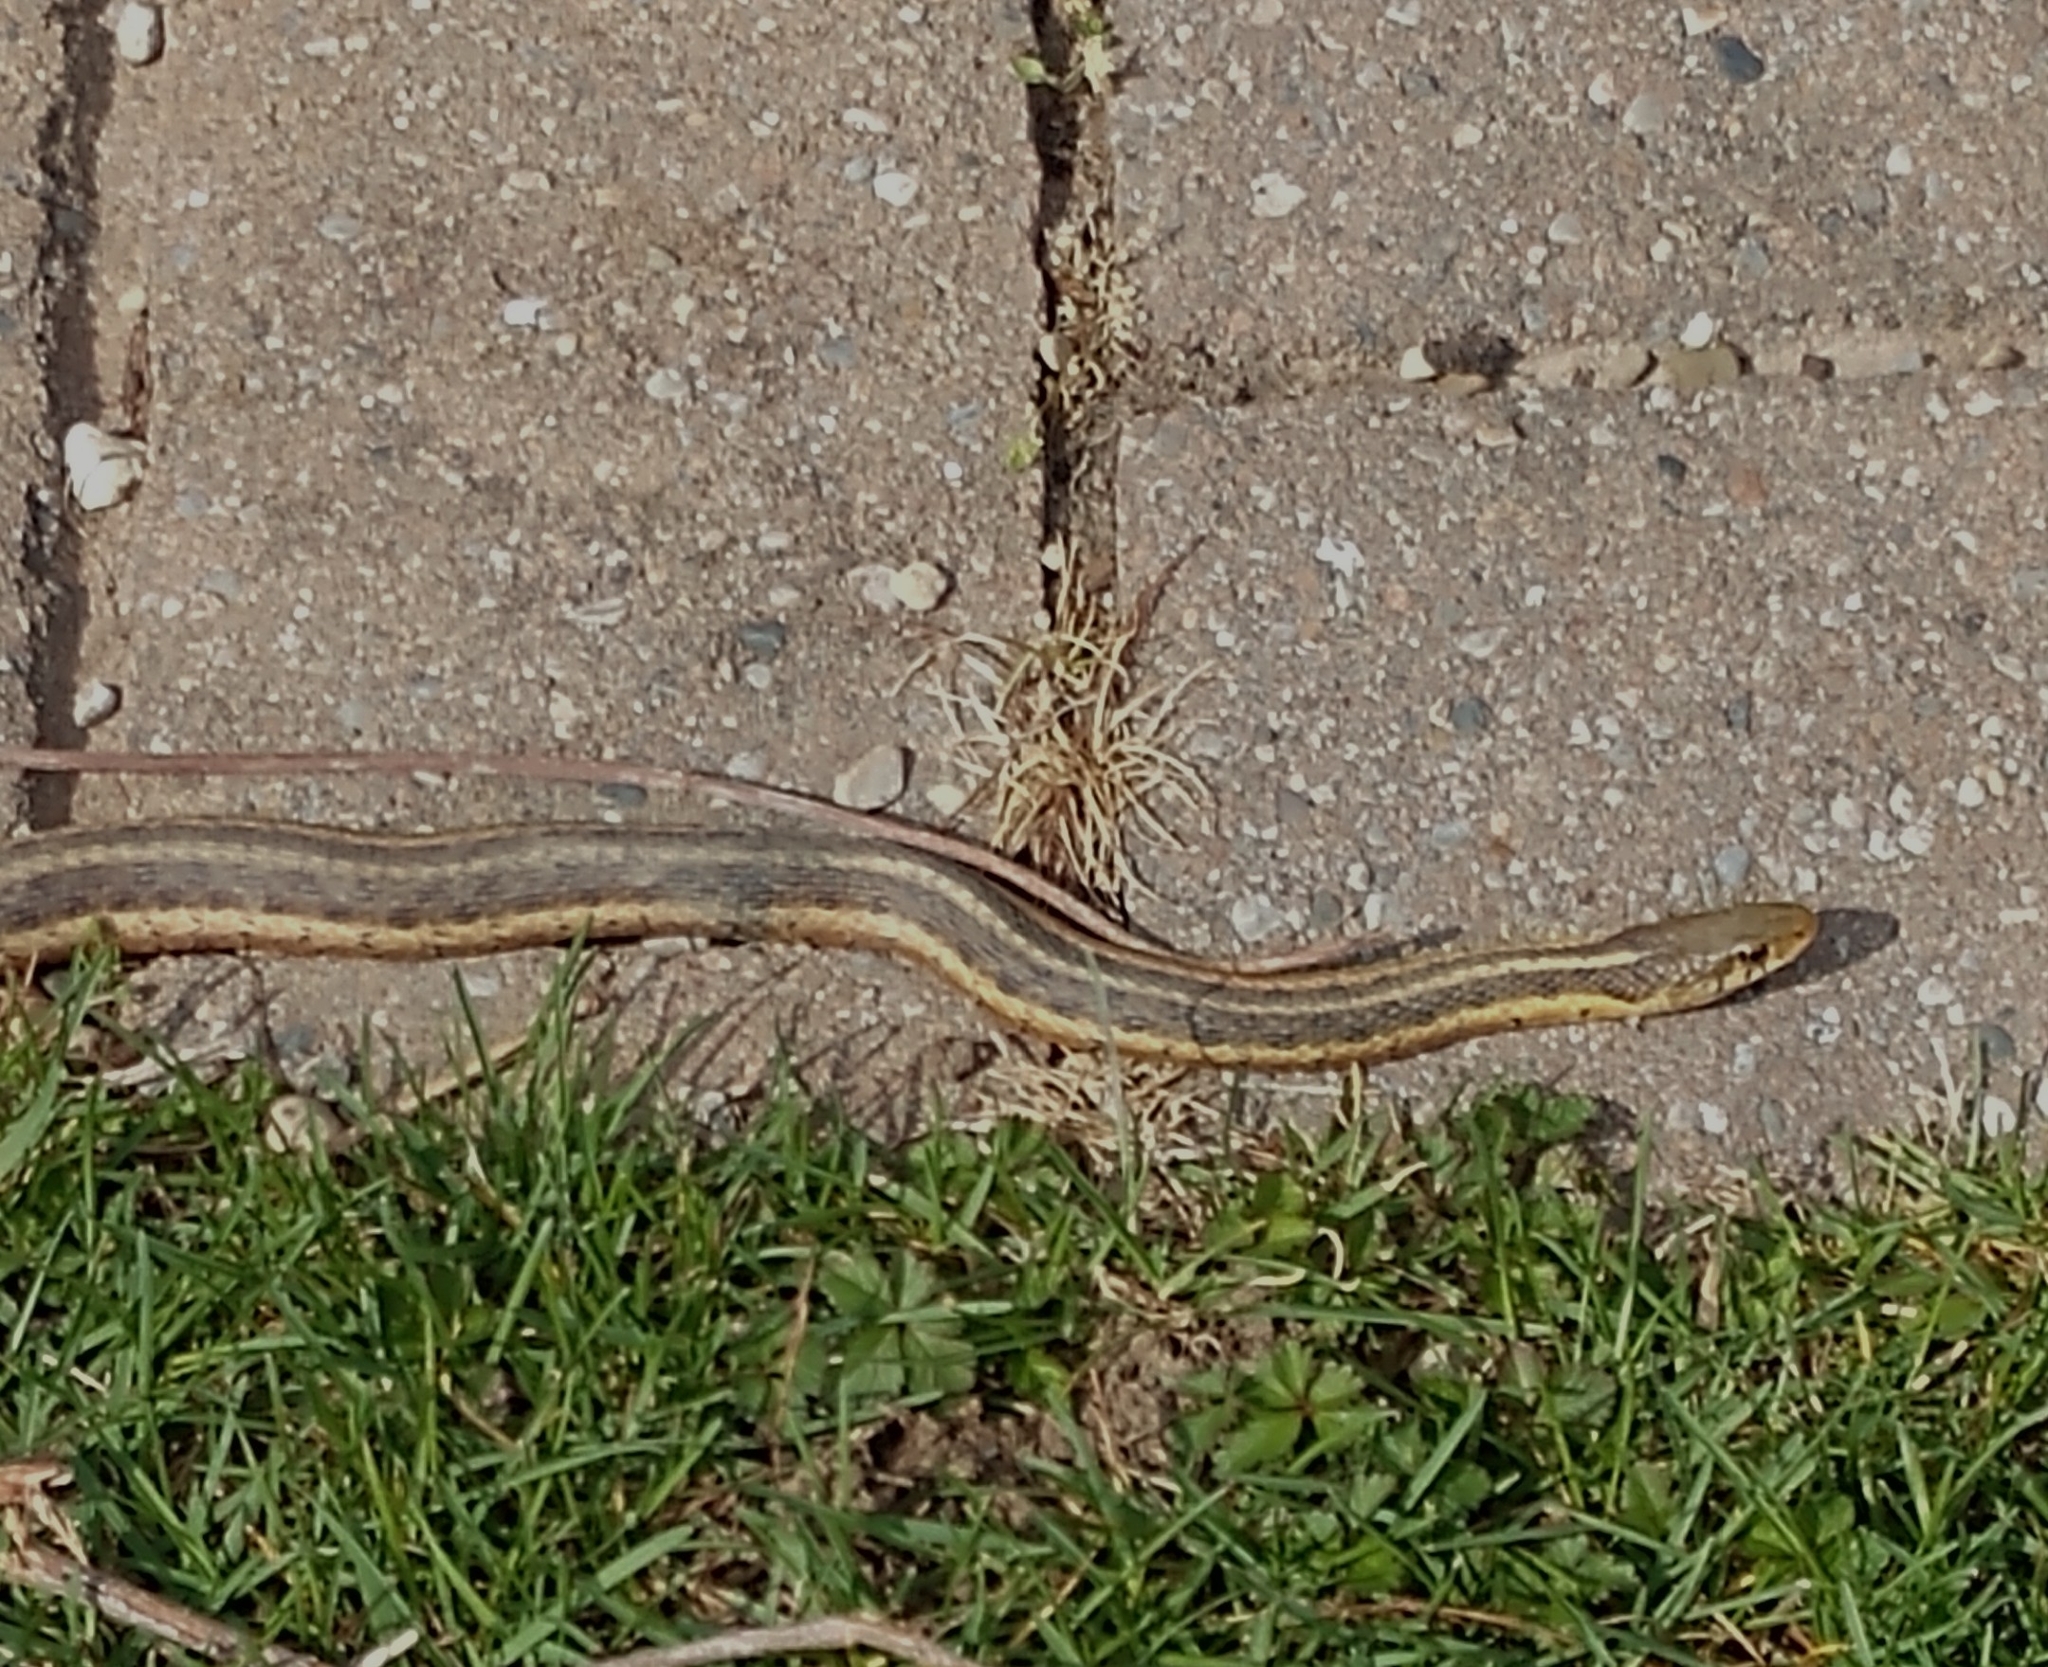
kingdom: Animalia
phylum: Chordata
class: Squamata
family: Colubridae
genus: Thamnophis
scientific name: Thamnophis sirtalis
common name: Common garter snake
